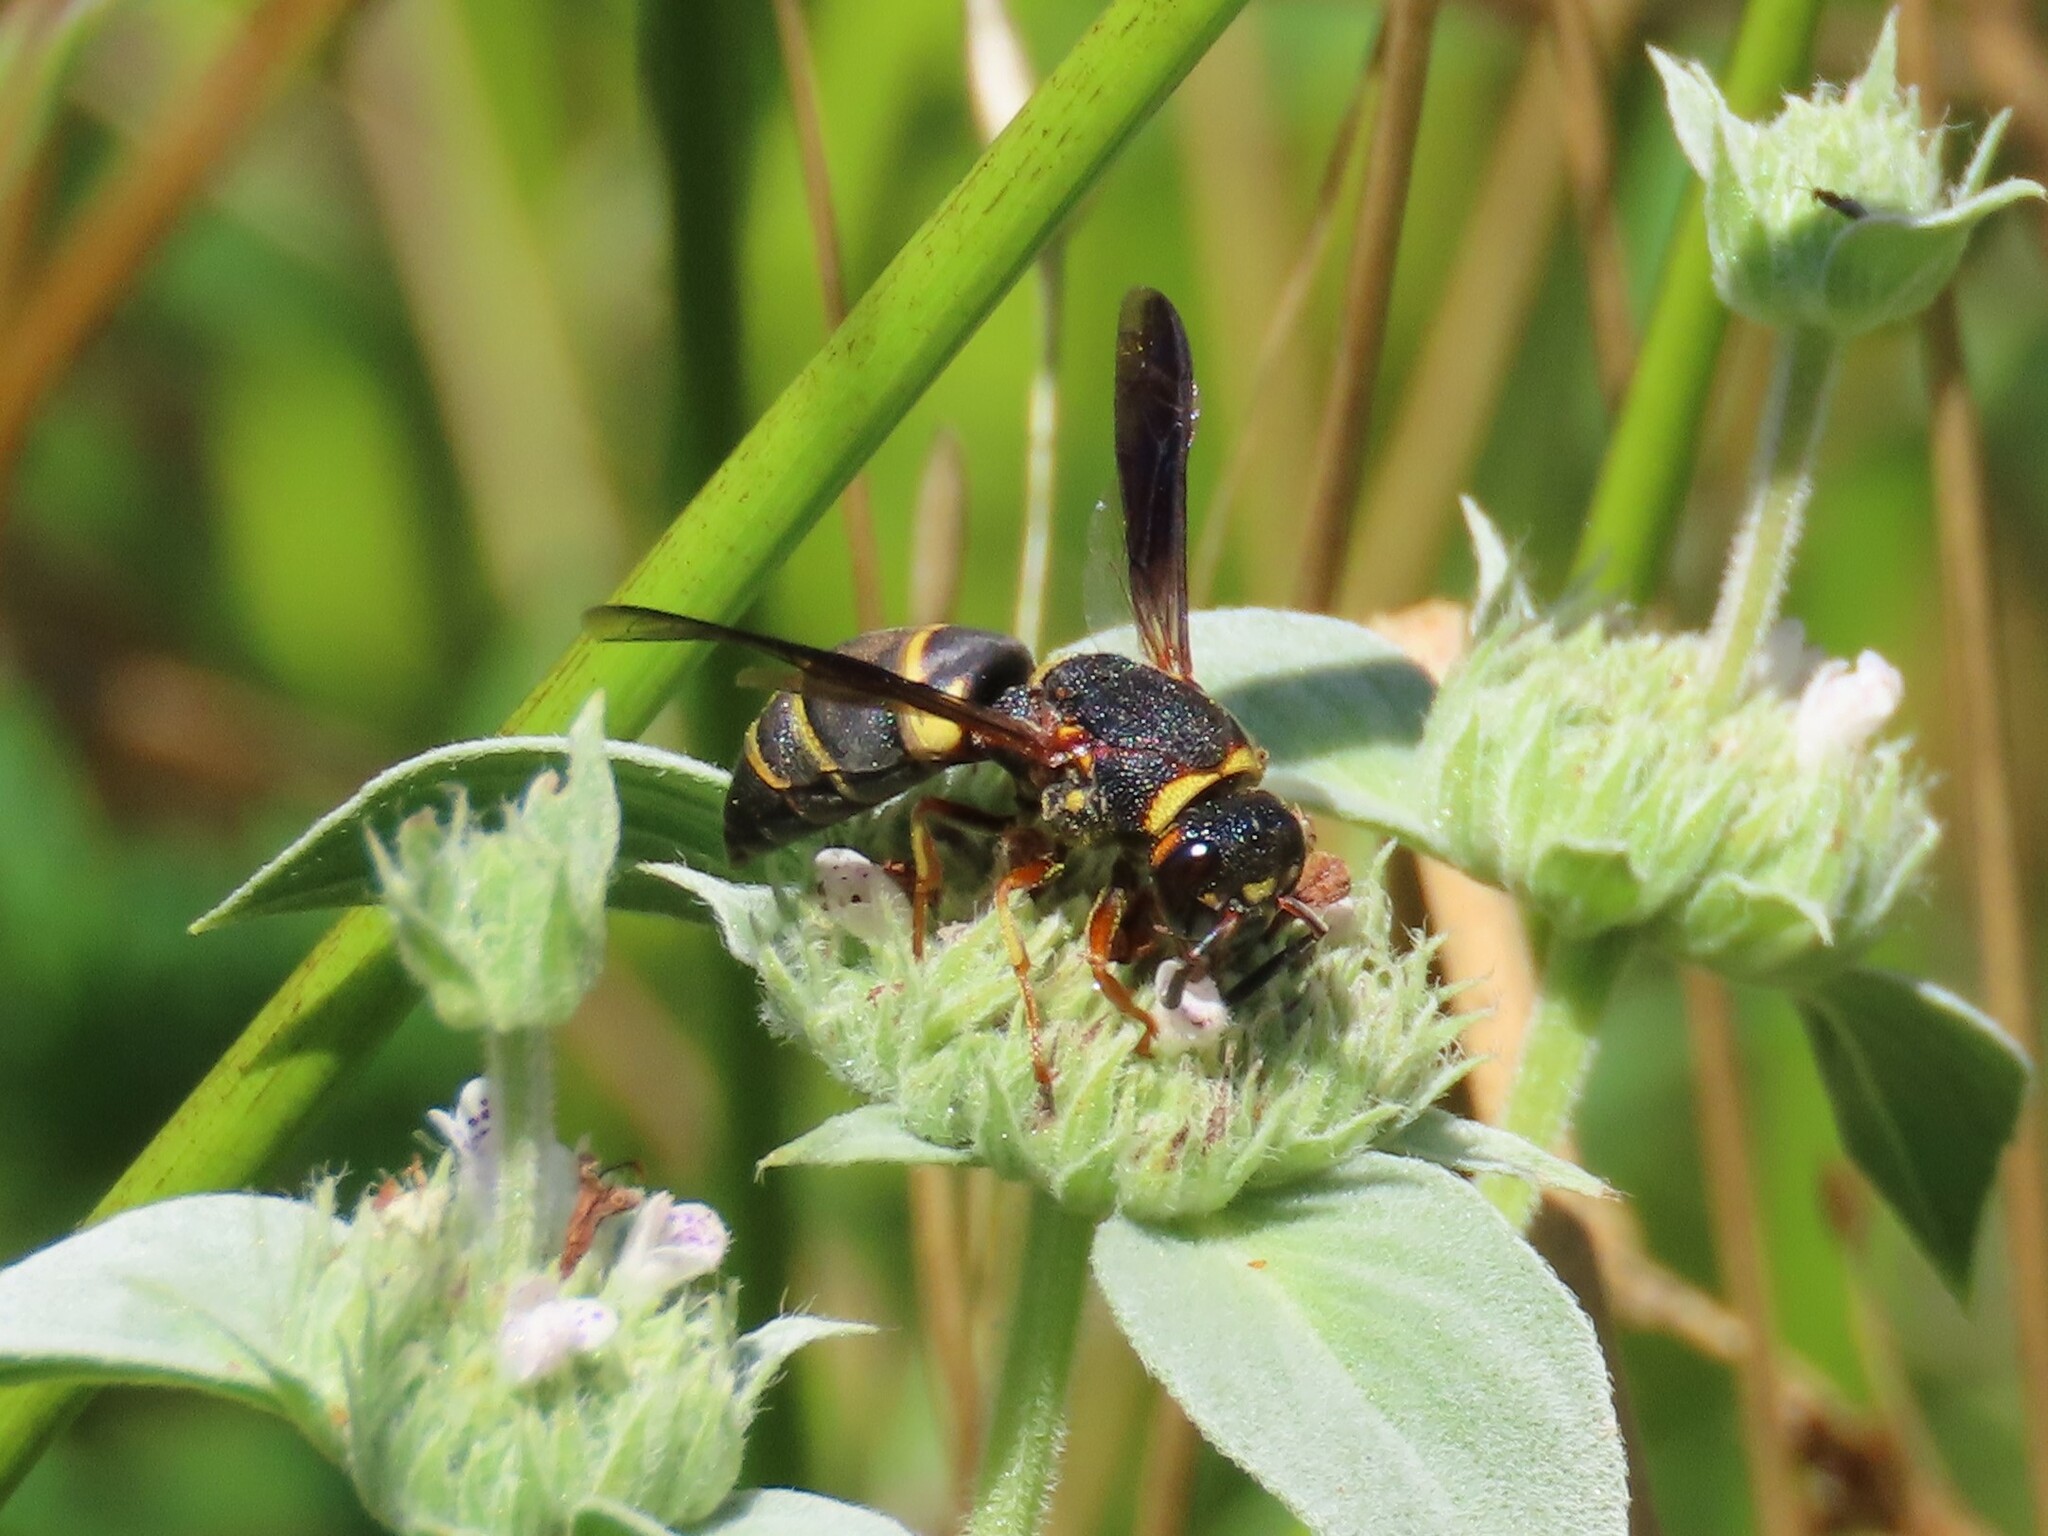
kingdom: Animalia
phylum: Arthropoda
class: Insecta
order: Hymenoptera
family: Eumenidae
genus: Euodynerus
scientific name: Euodynerus hidalgo
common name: Wasp
